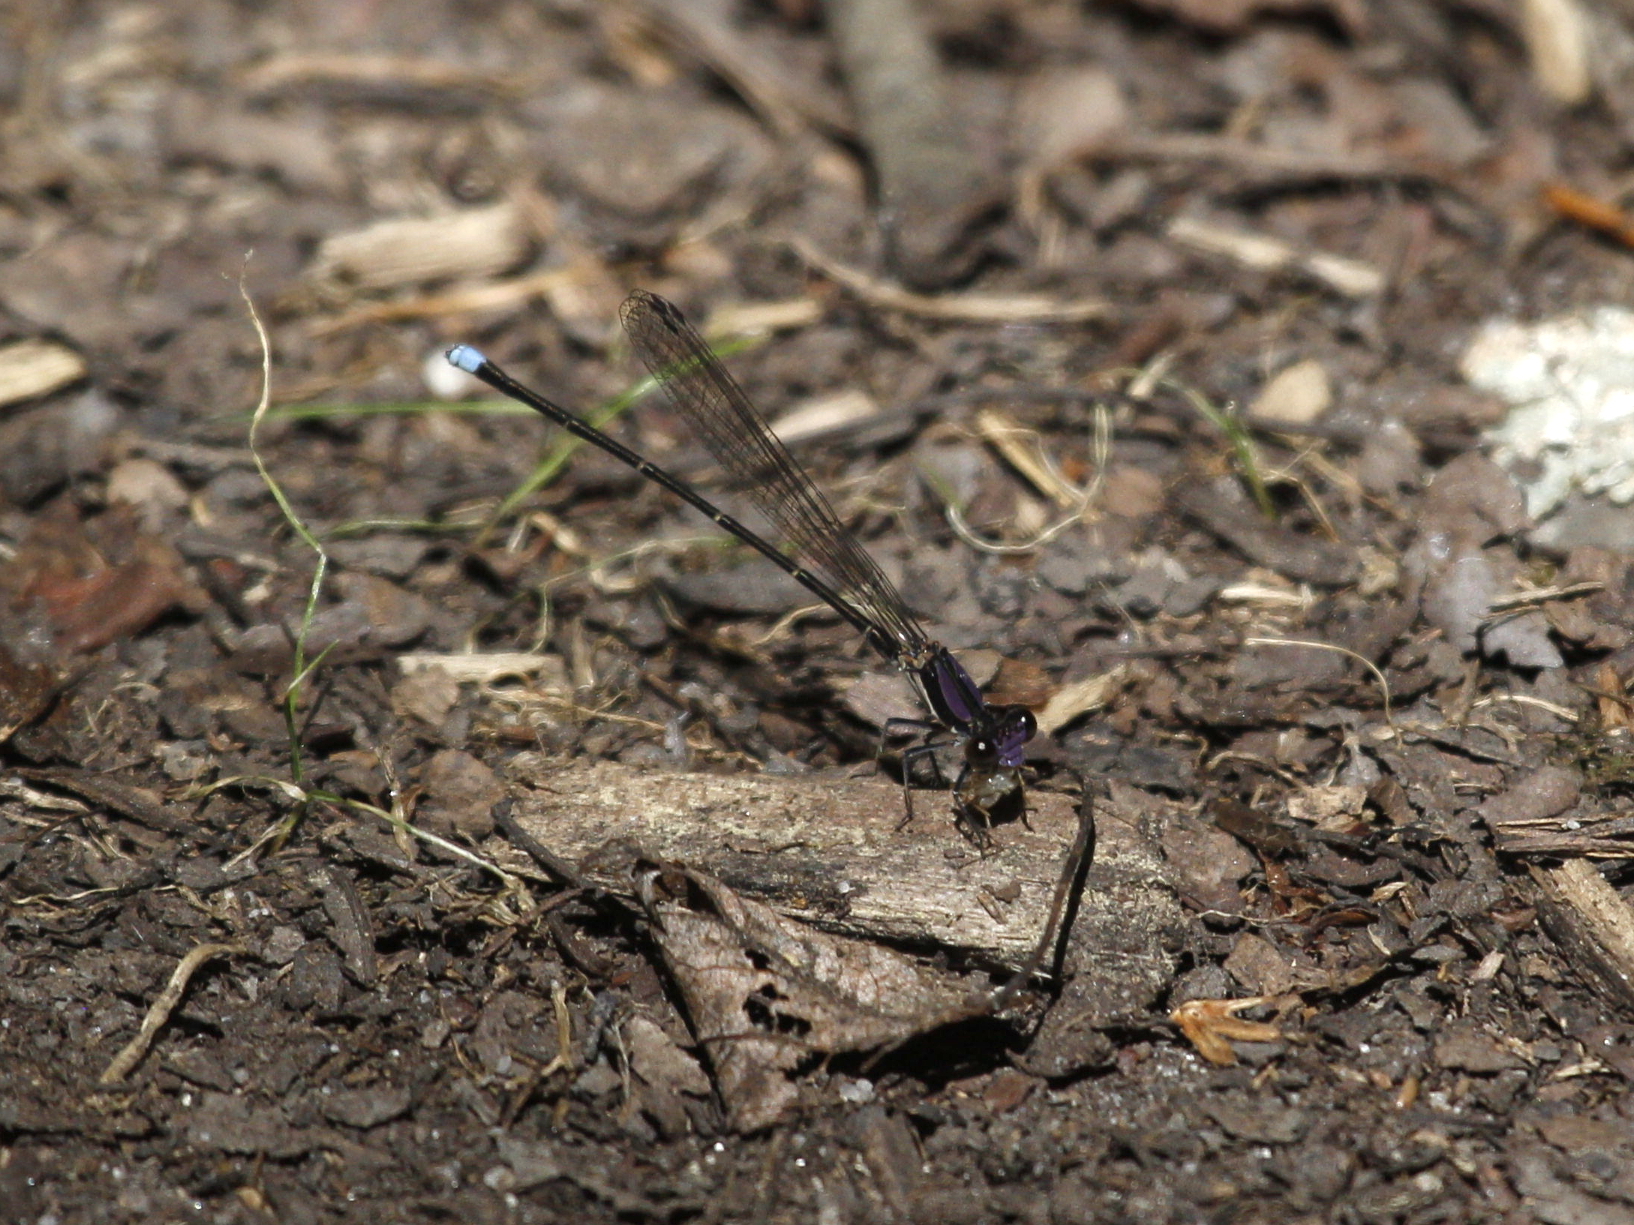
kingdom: Animalia
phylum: Arthropoda
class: Insecta
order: Odonata
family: Coenagrionidae
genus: Argia
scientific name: Argia tibialis
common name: Blue-tipped dancer
